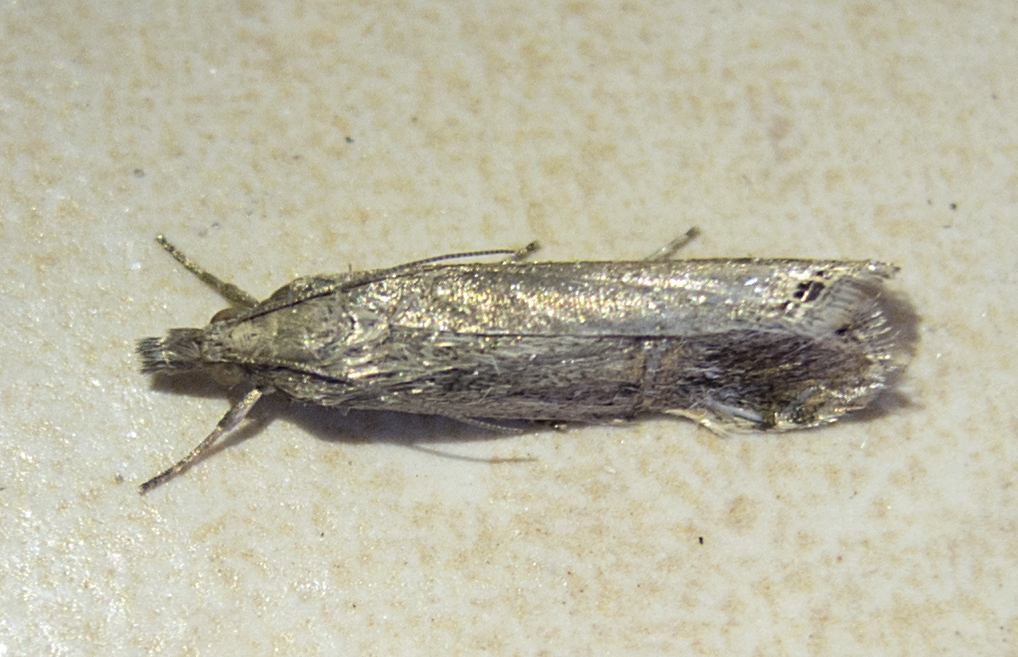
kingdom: Animalia
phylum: Arthropoda
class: Insecta
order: Lepidoptera
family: Crambidae
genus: Euchromius
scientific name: Euchromius ocellea
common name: Necklace veneer moth
